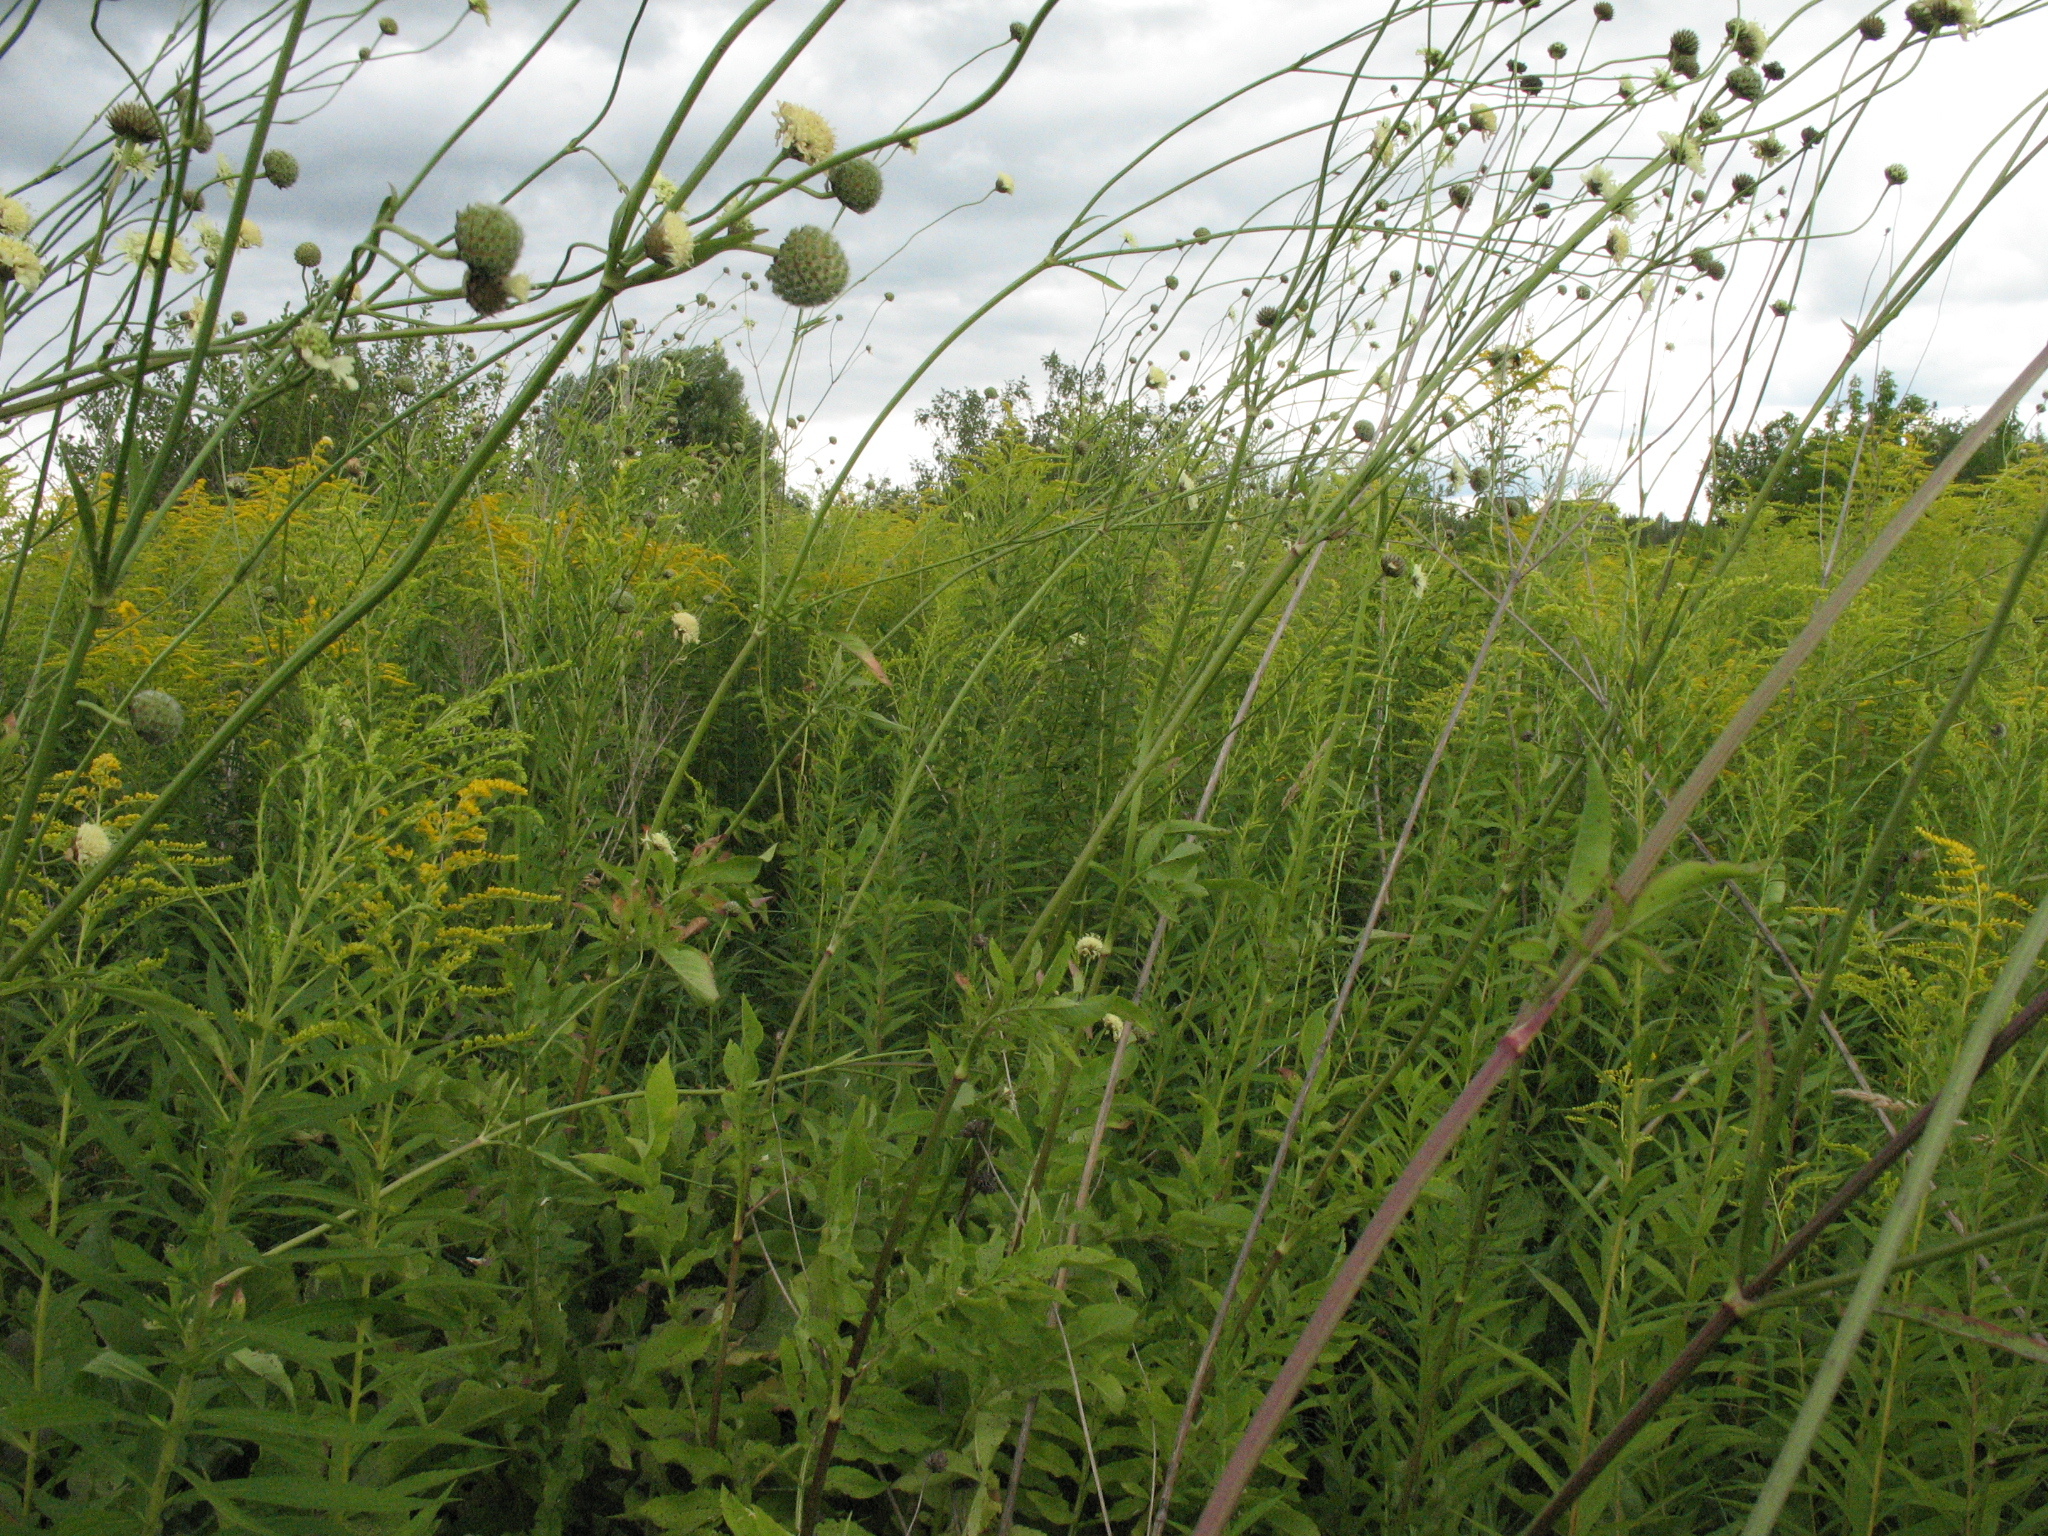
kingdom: Plantae
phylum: Tracheophyta
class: Magnoliopsida
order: Dipsacales
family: Caprifoliaceae
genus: Cephalaria
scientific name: Cephalaria litvinovii
